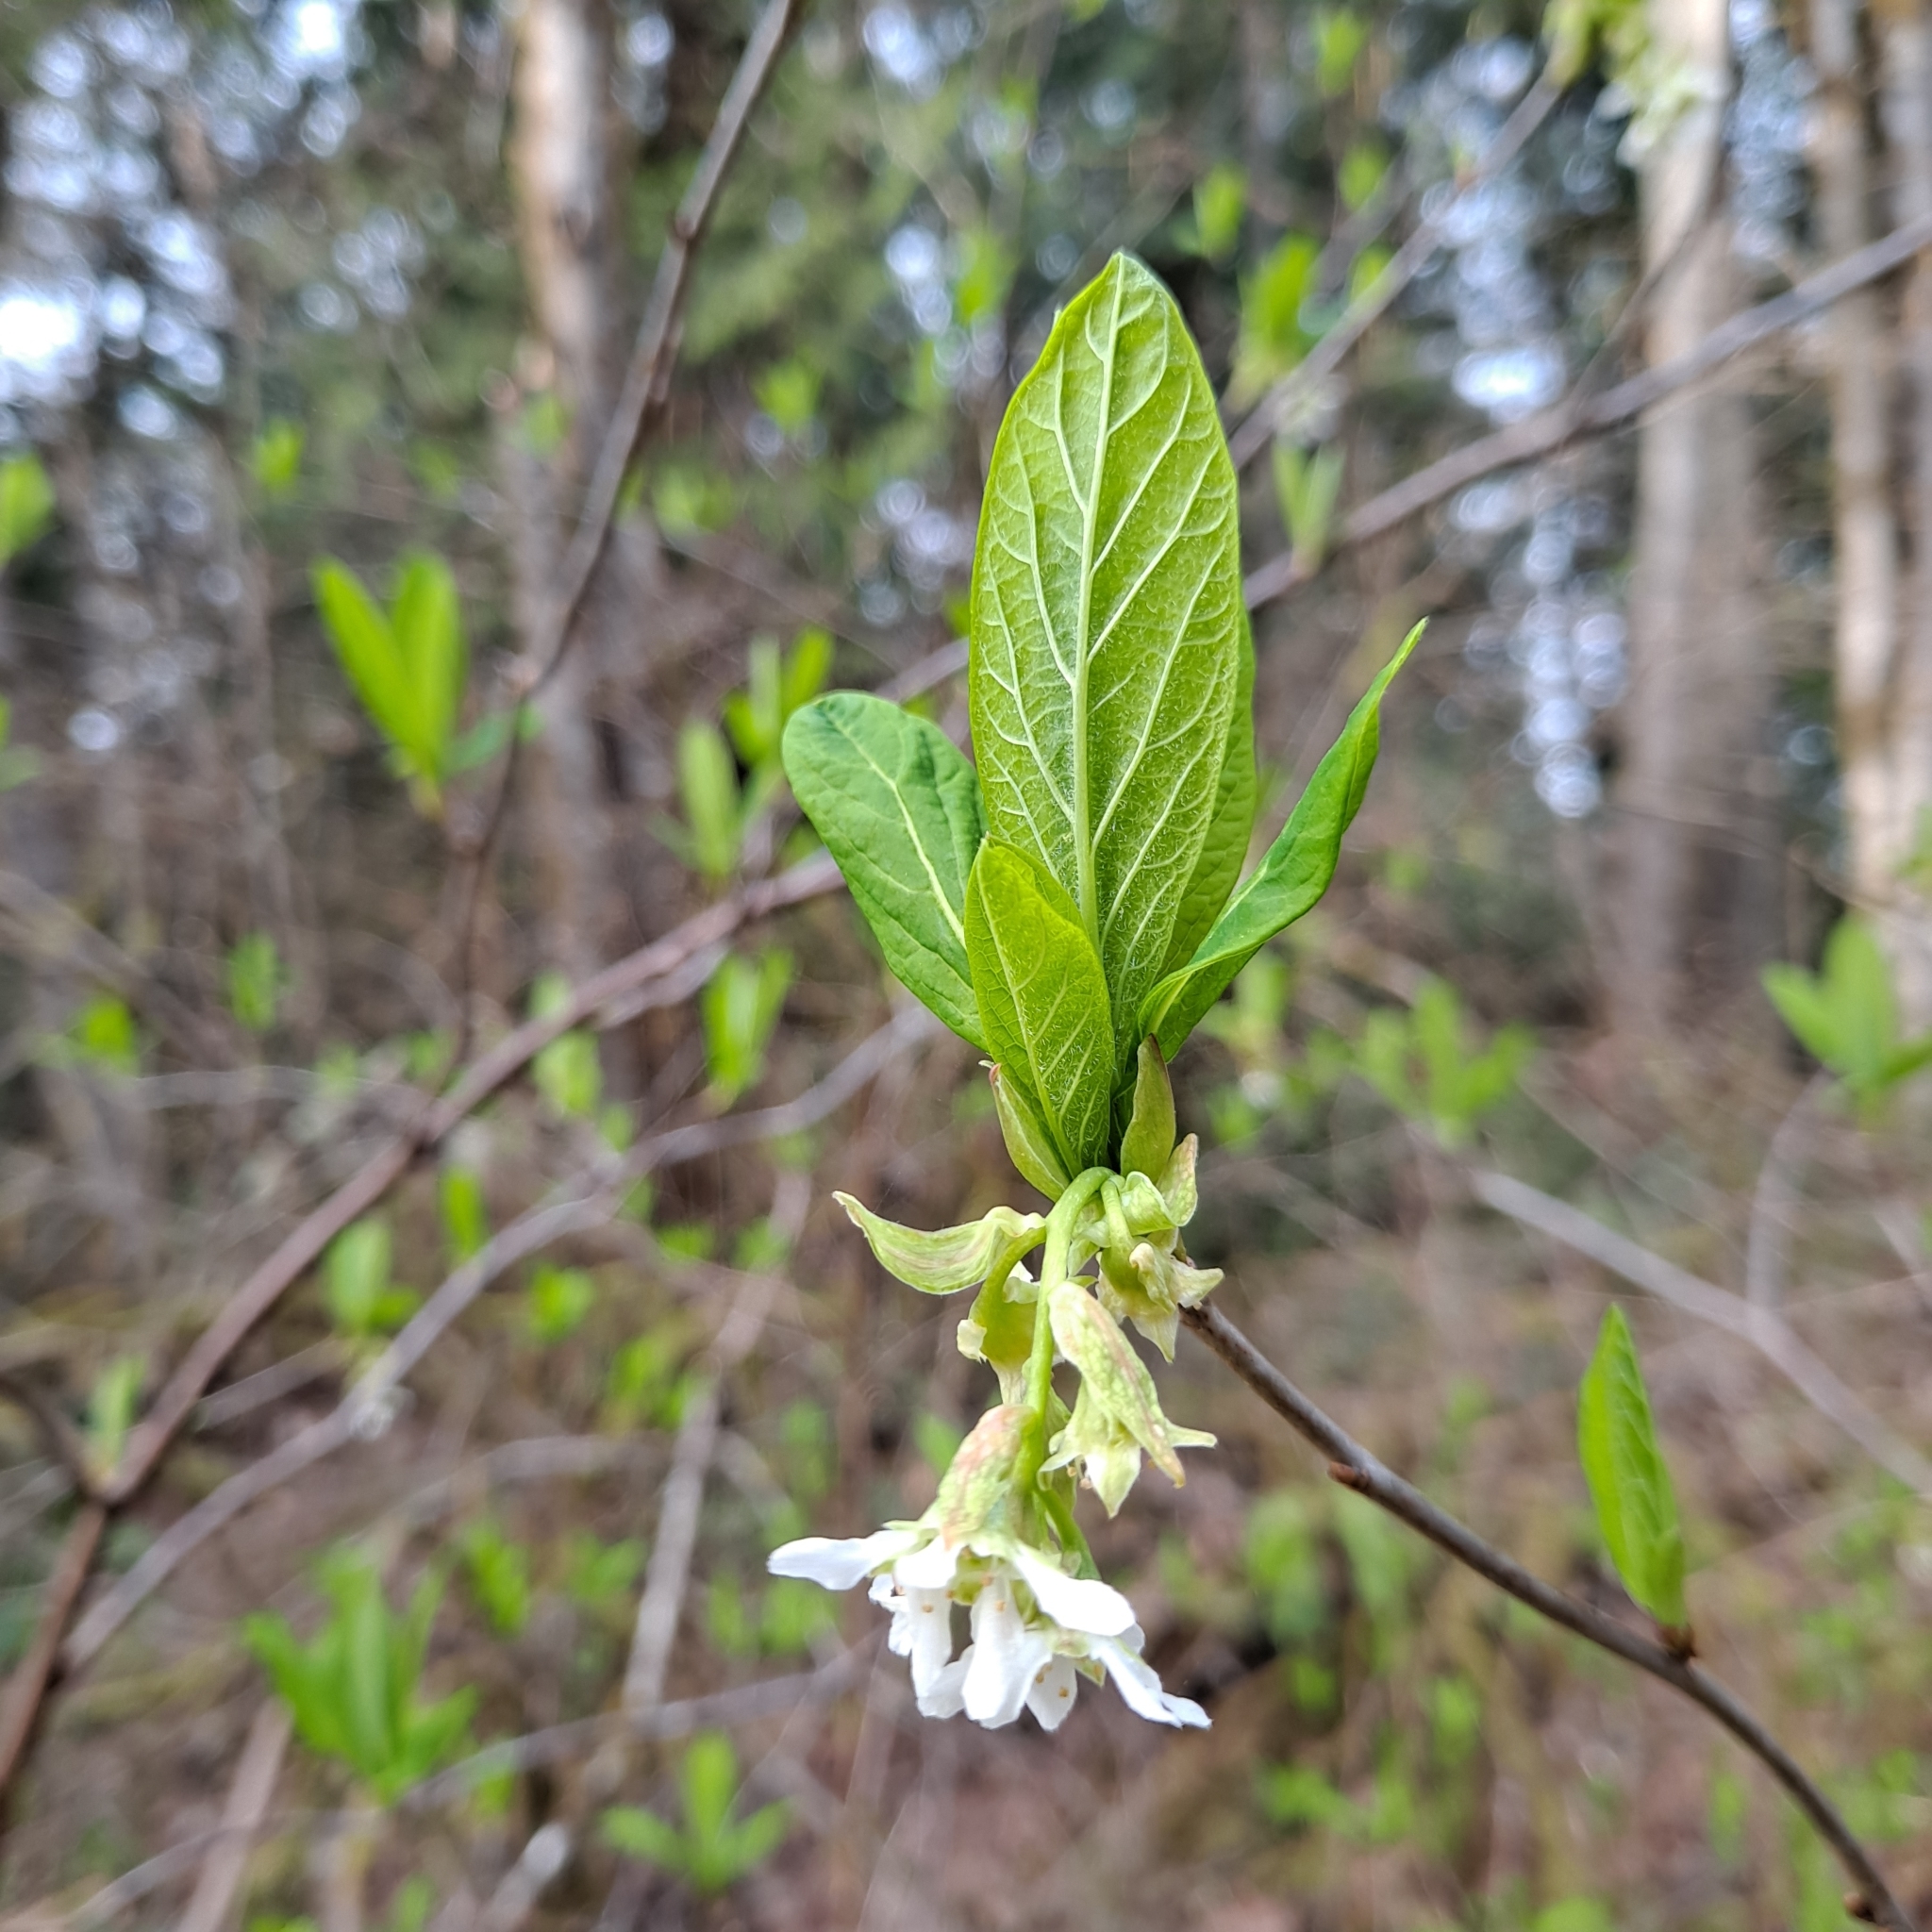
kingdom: Plantae
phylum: Tracheophyta
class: Magnoliopsida
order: Rosales
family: Rosaceae
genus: Oemleria
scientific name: Oemleria cerasiformis
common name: Osoberry
